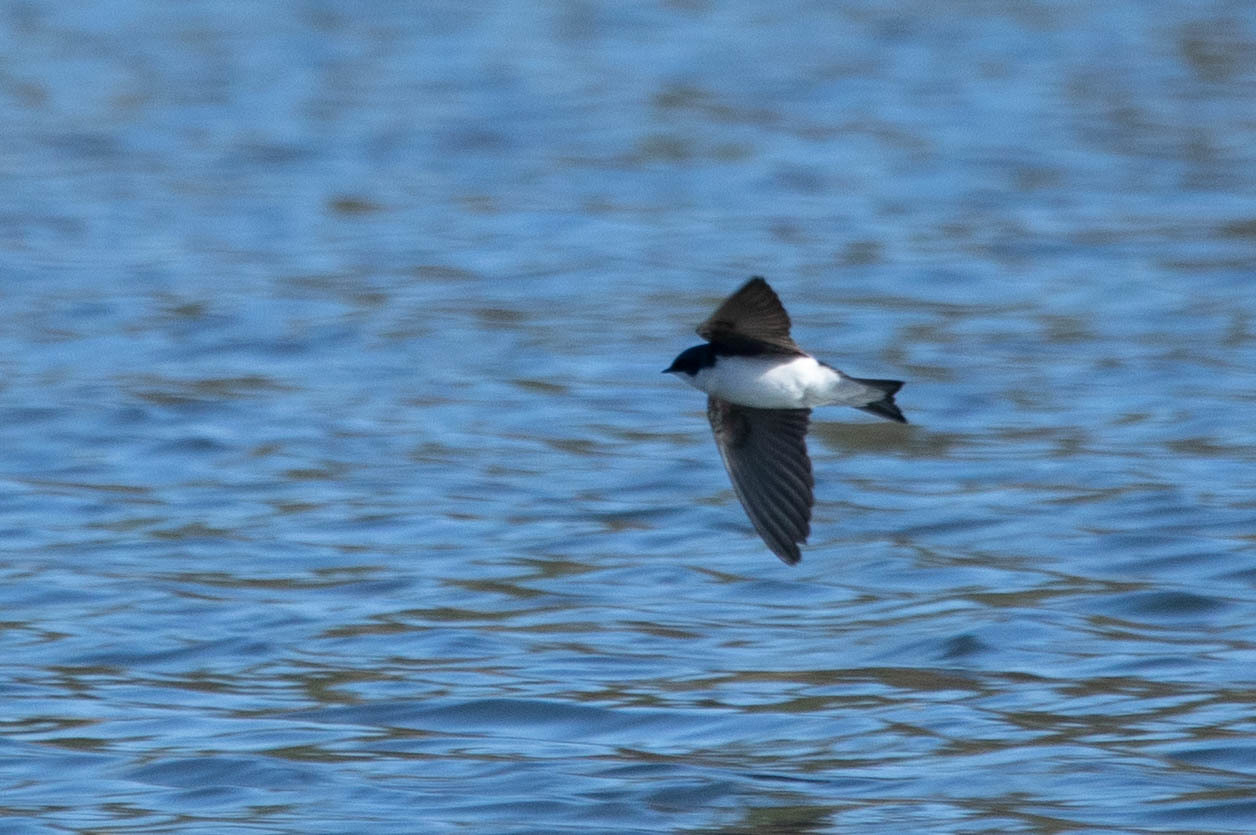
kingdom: Animalia
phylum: Chordata
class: Aves
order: Passeriformes
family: Hirundinidae
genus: Tachycineta
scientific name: Tachycineta bicolor
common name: Tree swallow
